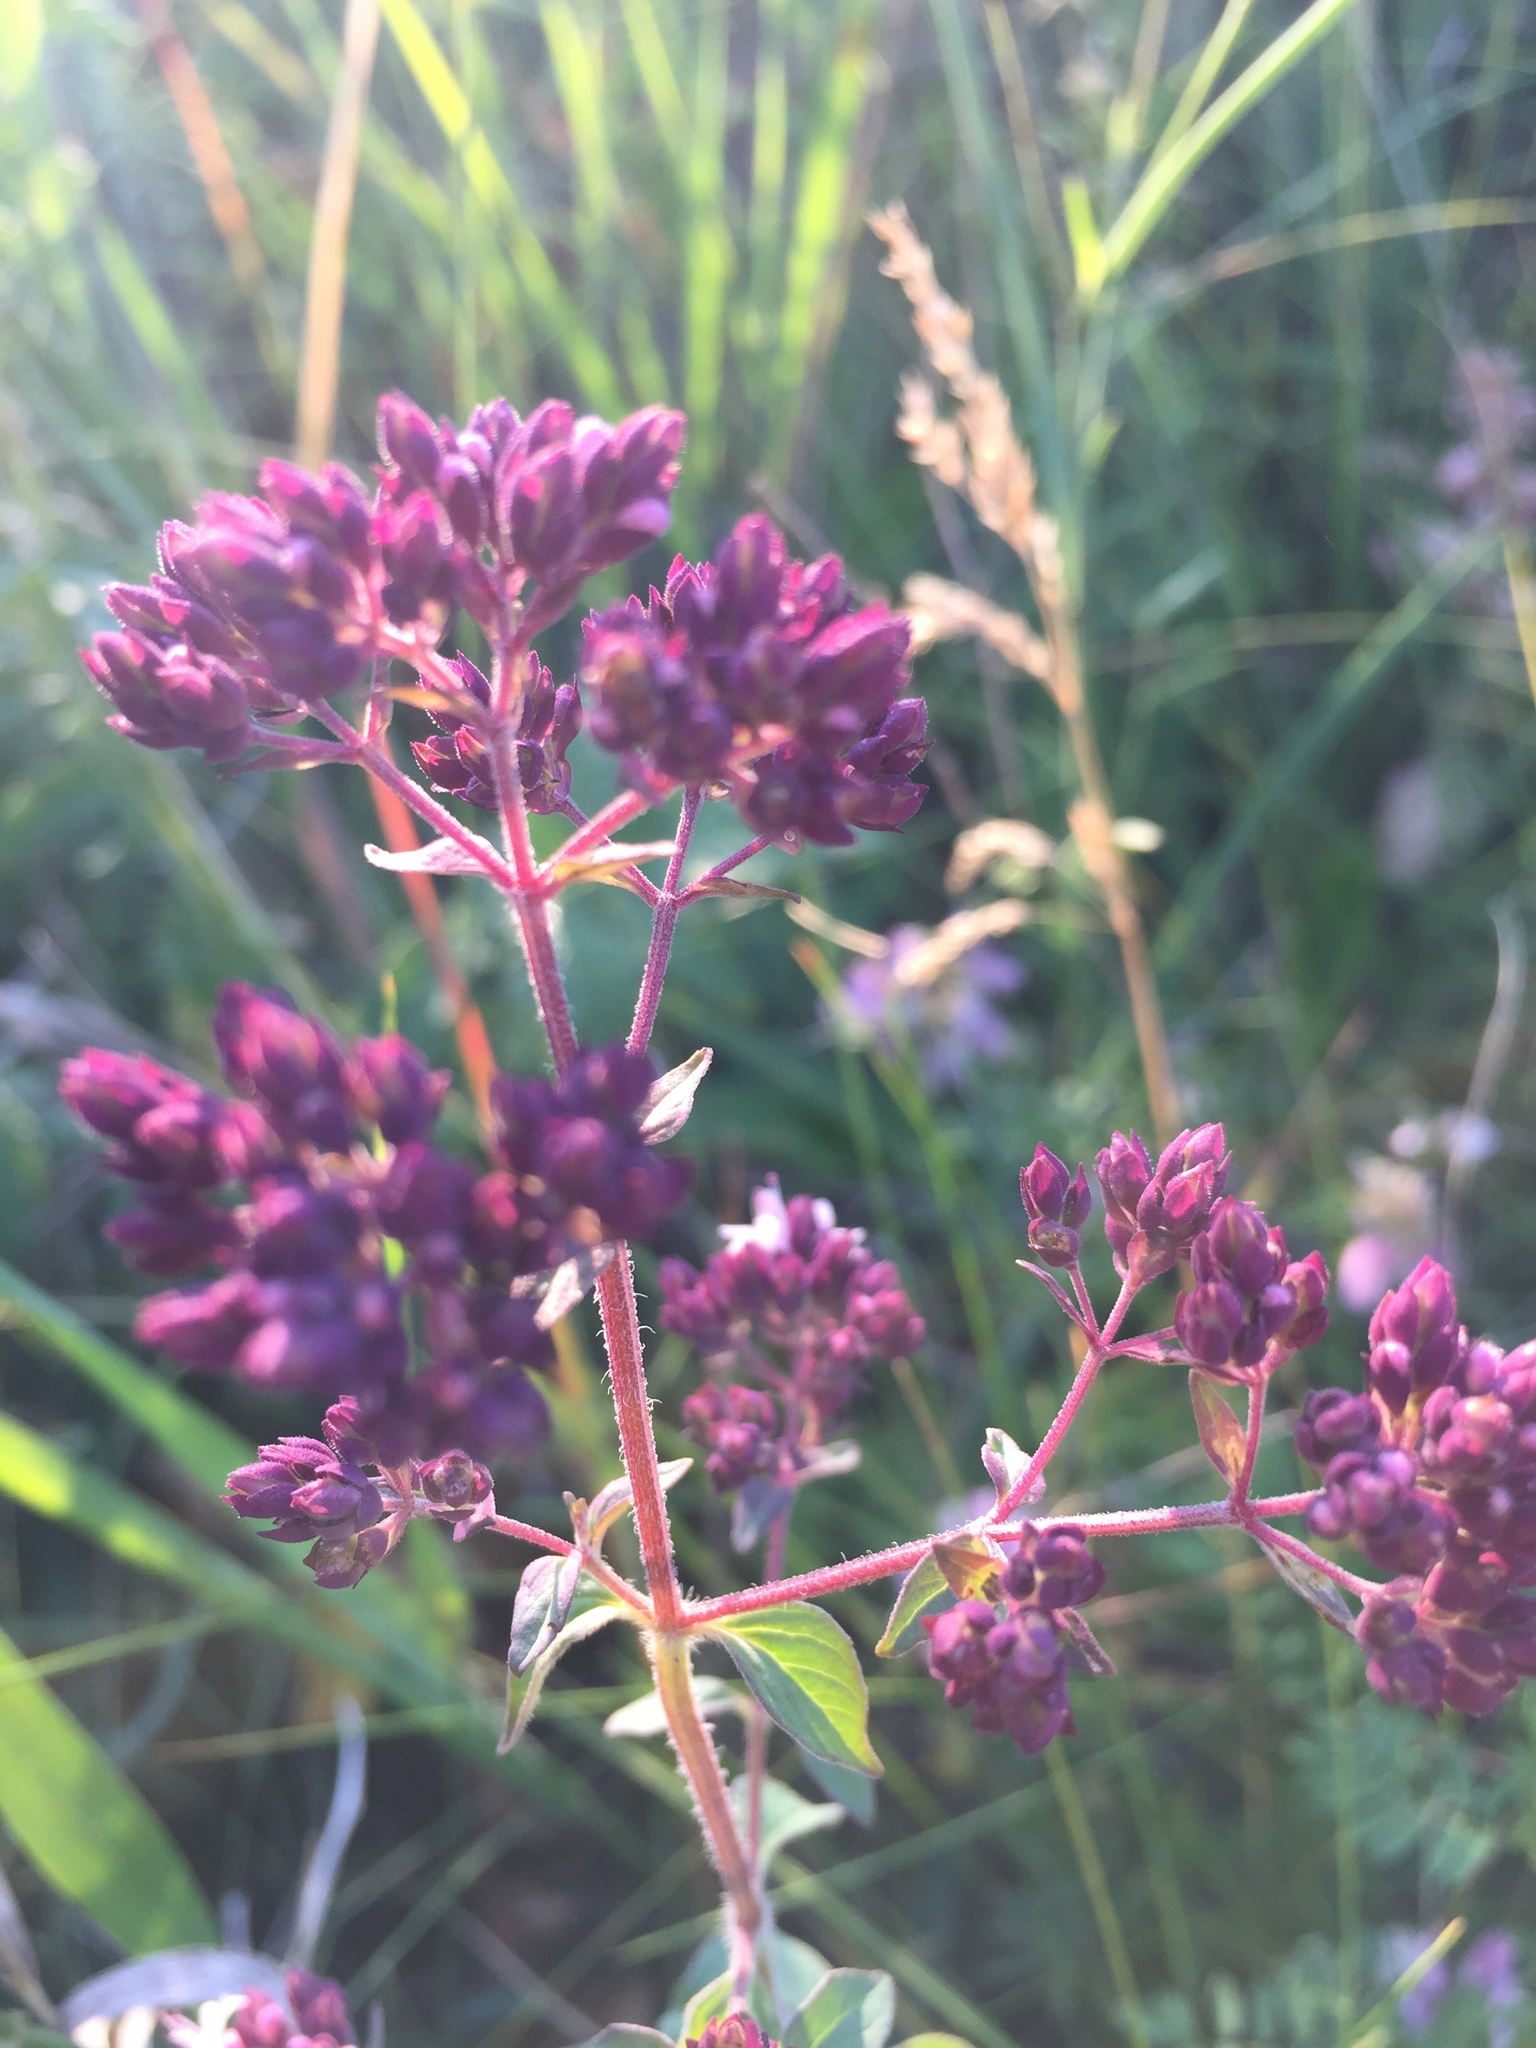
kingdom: Plantae
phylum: Tracheophyta
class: Magnoliopsida
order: Lamiales
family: Lamiaceae
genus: Origanum
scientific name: Origanum vulgare
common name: Wild marjoram
